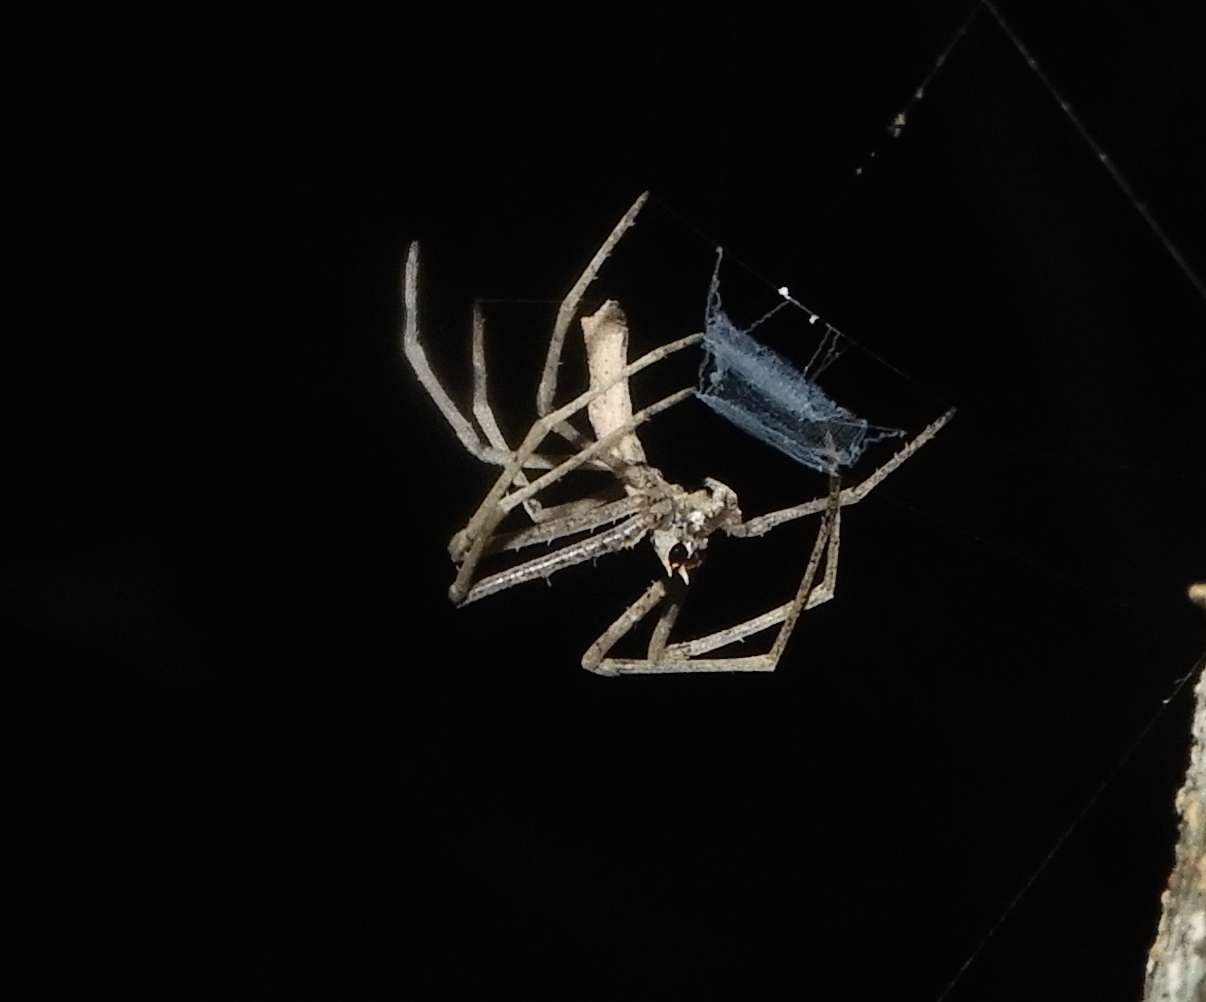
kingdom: Animalia
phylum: Arthropoda
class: Arachnida
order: Araneae
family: Deinopidae
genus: Deinopis
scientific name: Deinopis aurita
